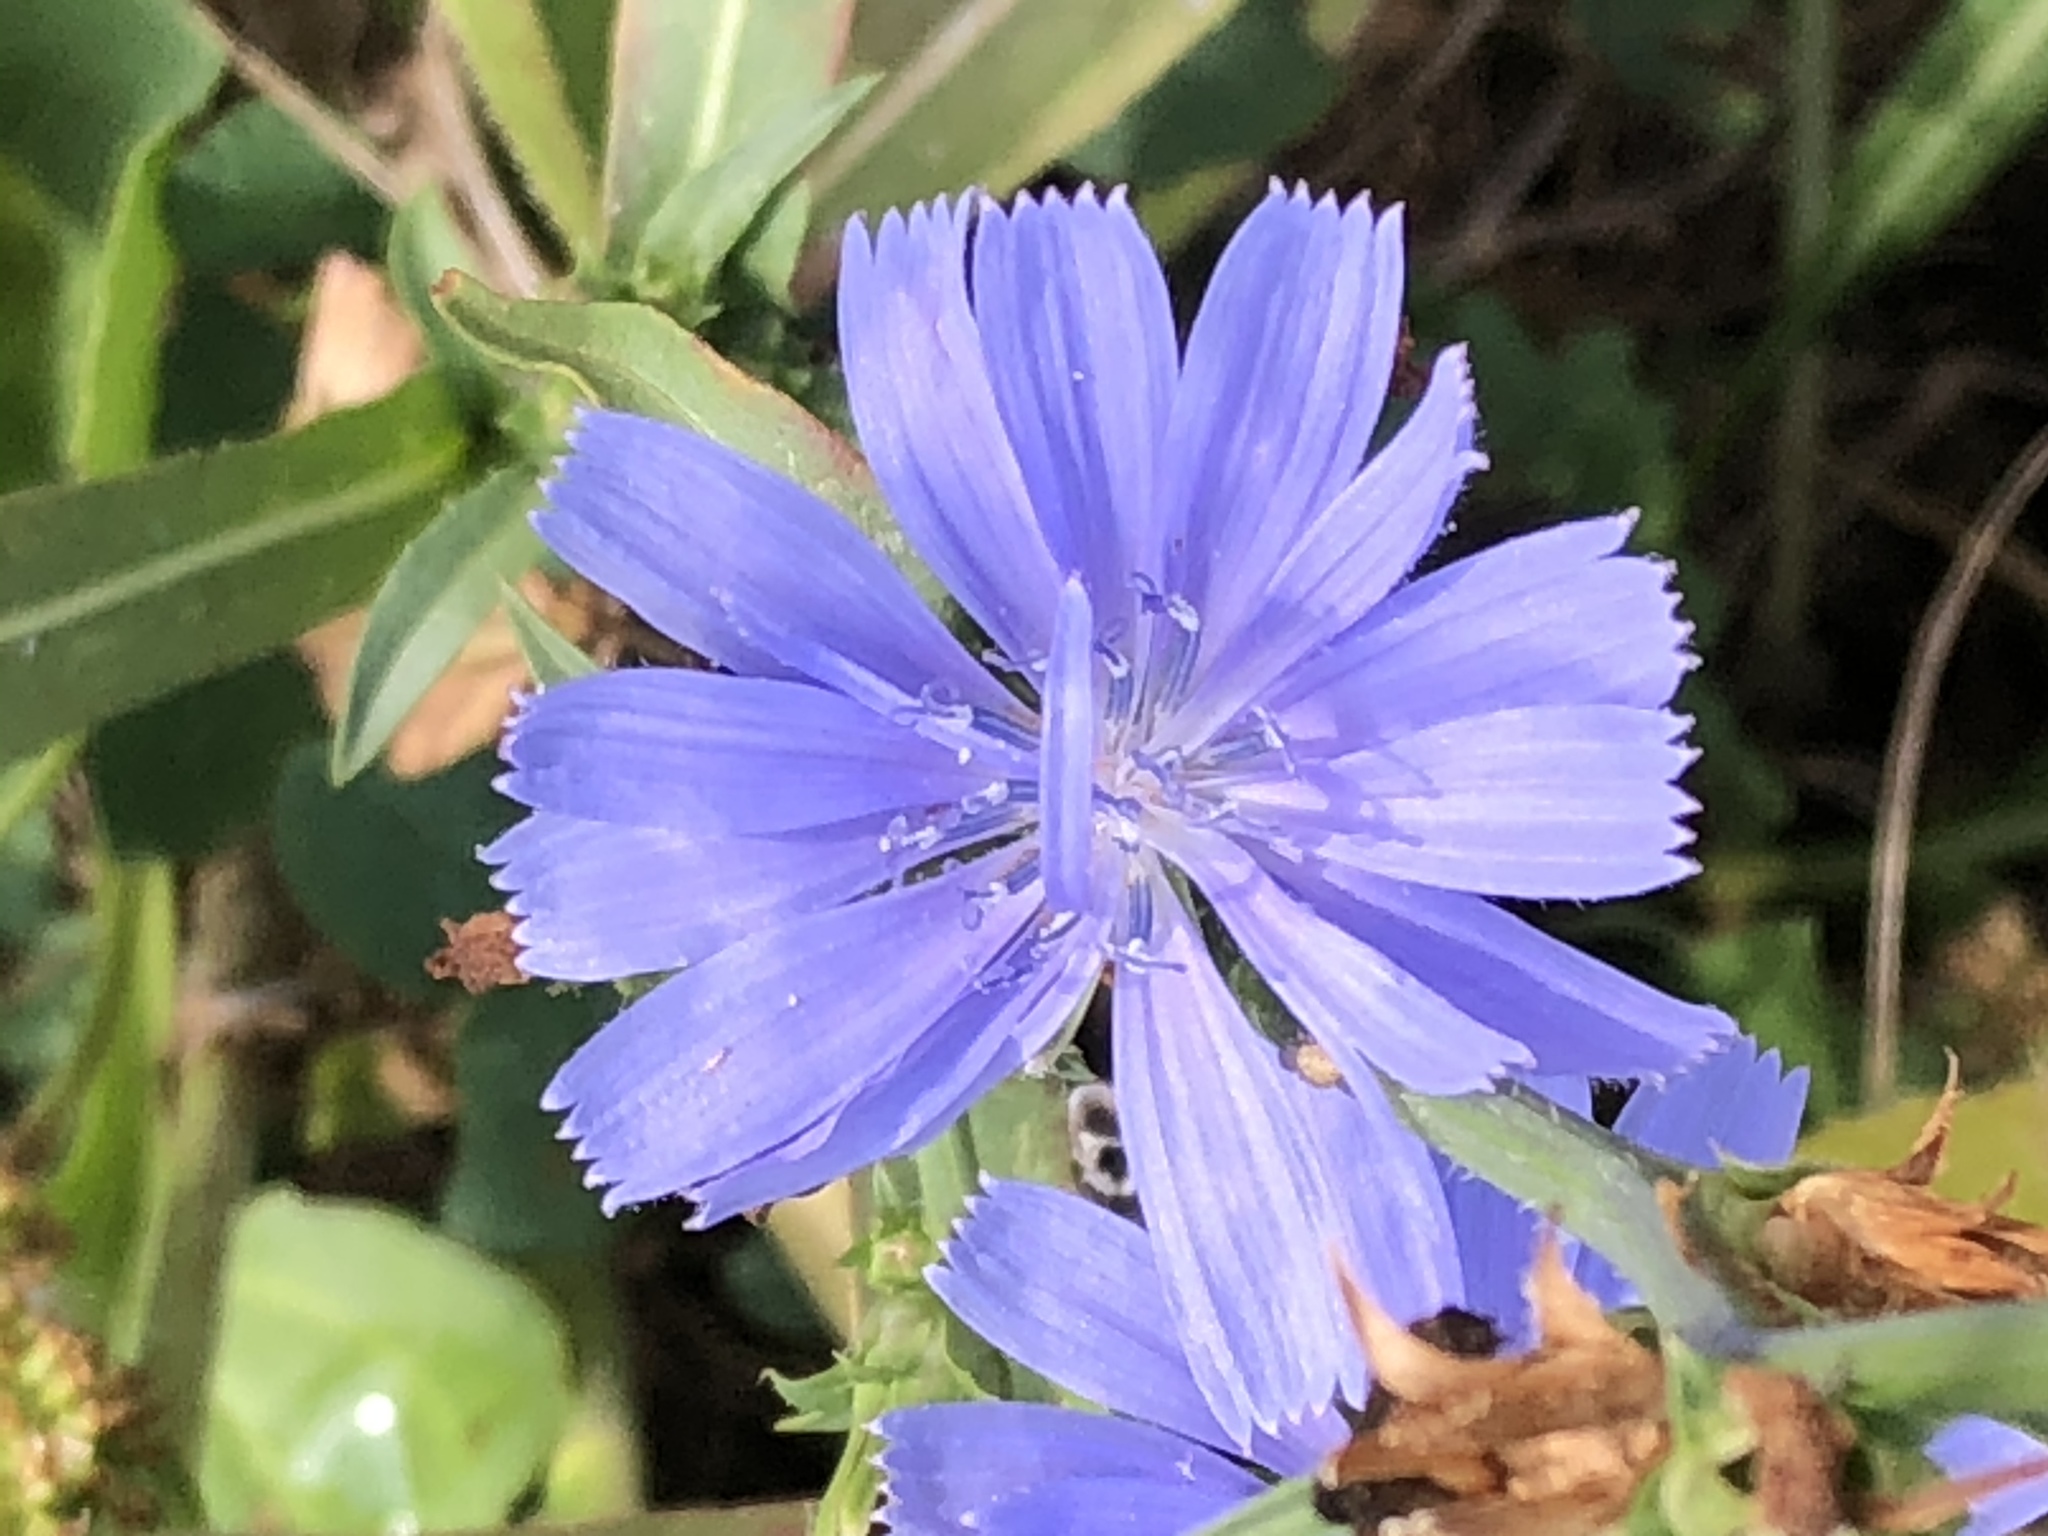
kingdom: Plantae
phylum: Tracheophyta
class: Magnoliopsida
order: Asterales
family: Asteraceae
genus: Cichorium
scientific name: Cichorium intybus
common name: Chicory
